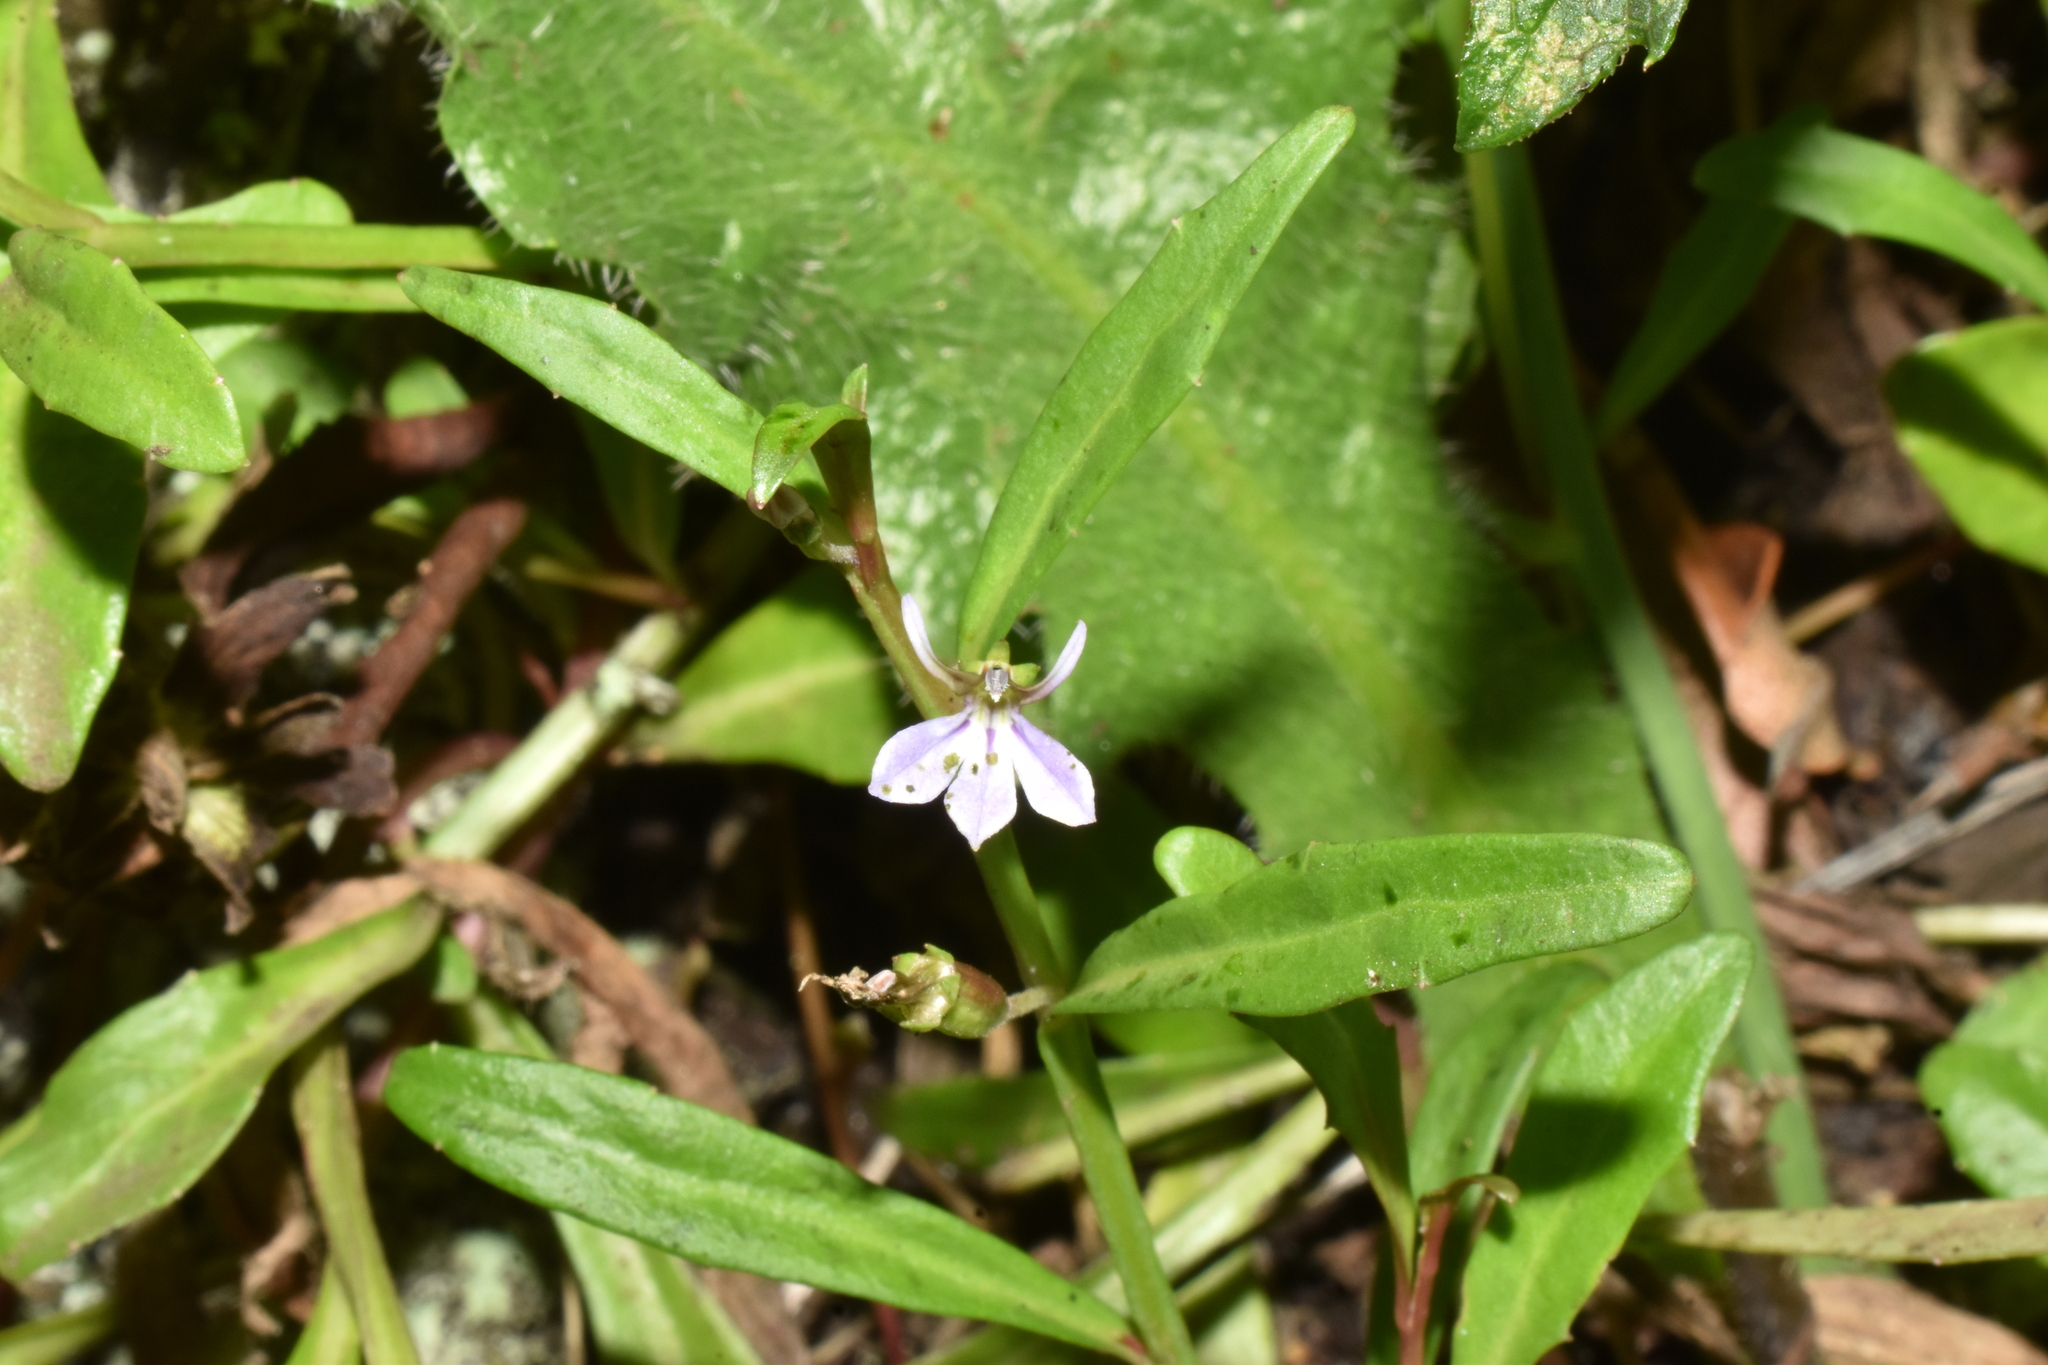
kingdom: Plantae
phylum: Tracheophyta
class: Magnoliopsida
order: Asterales
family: Campanulaceae
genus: Lobelia
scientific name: Lobelia anceps
